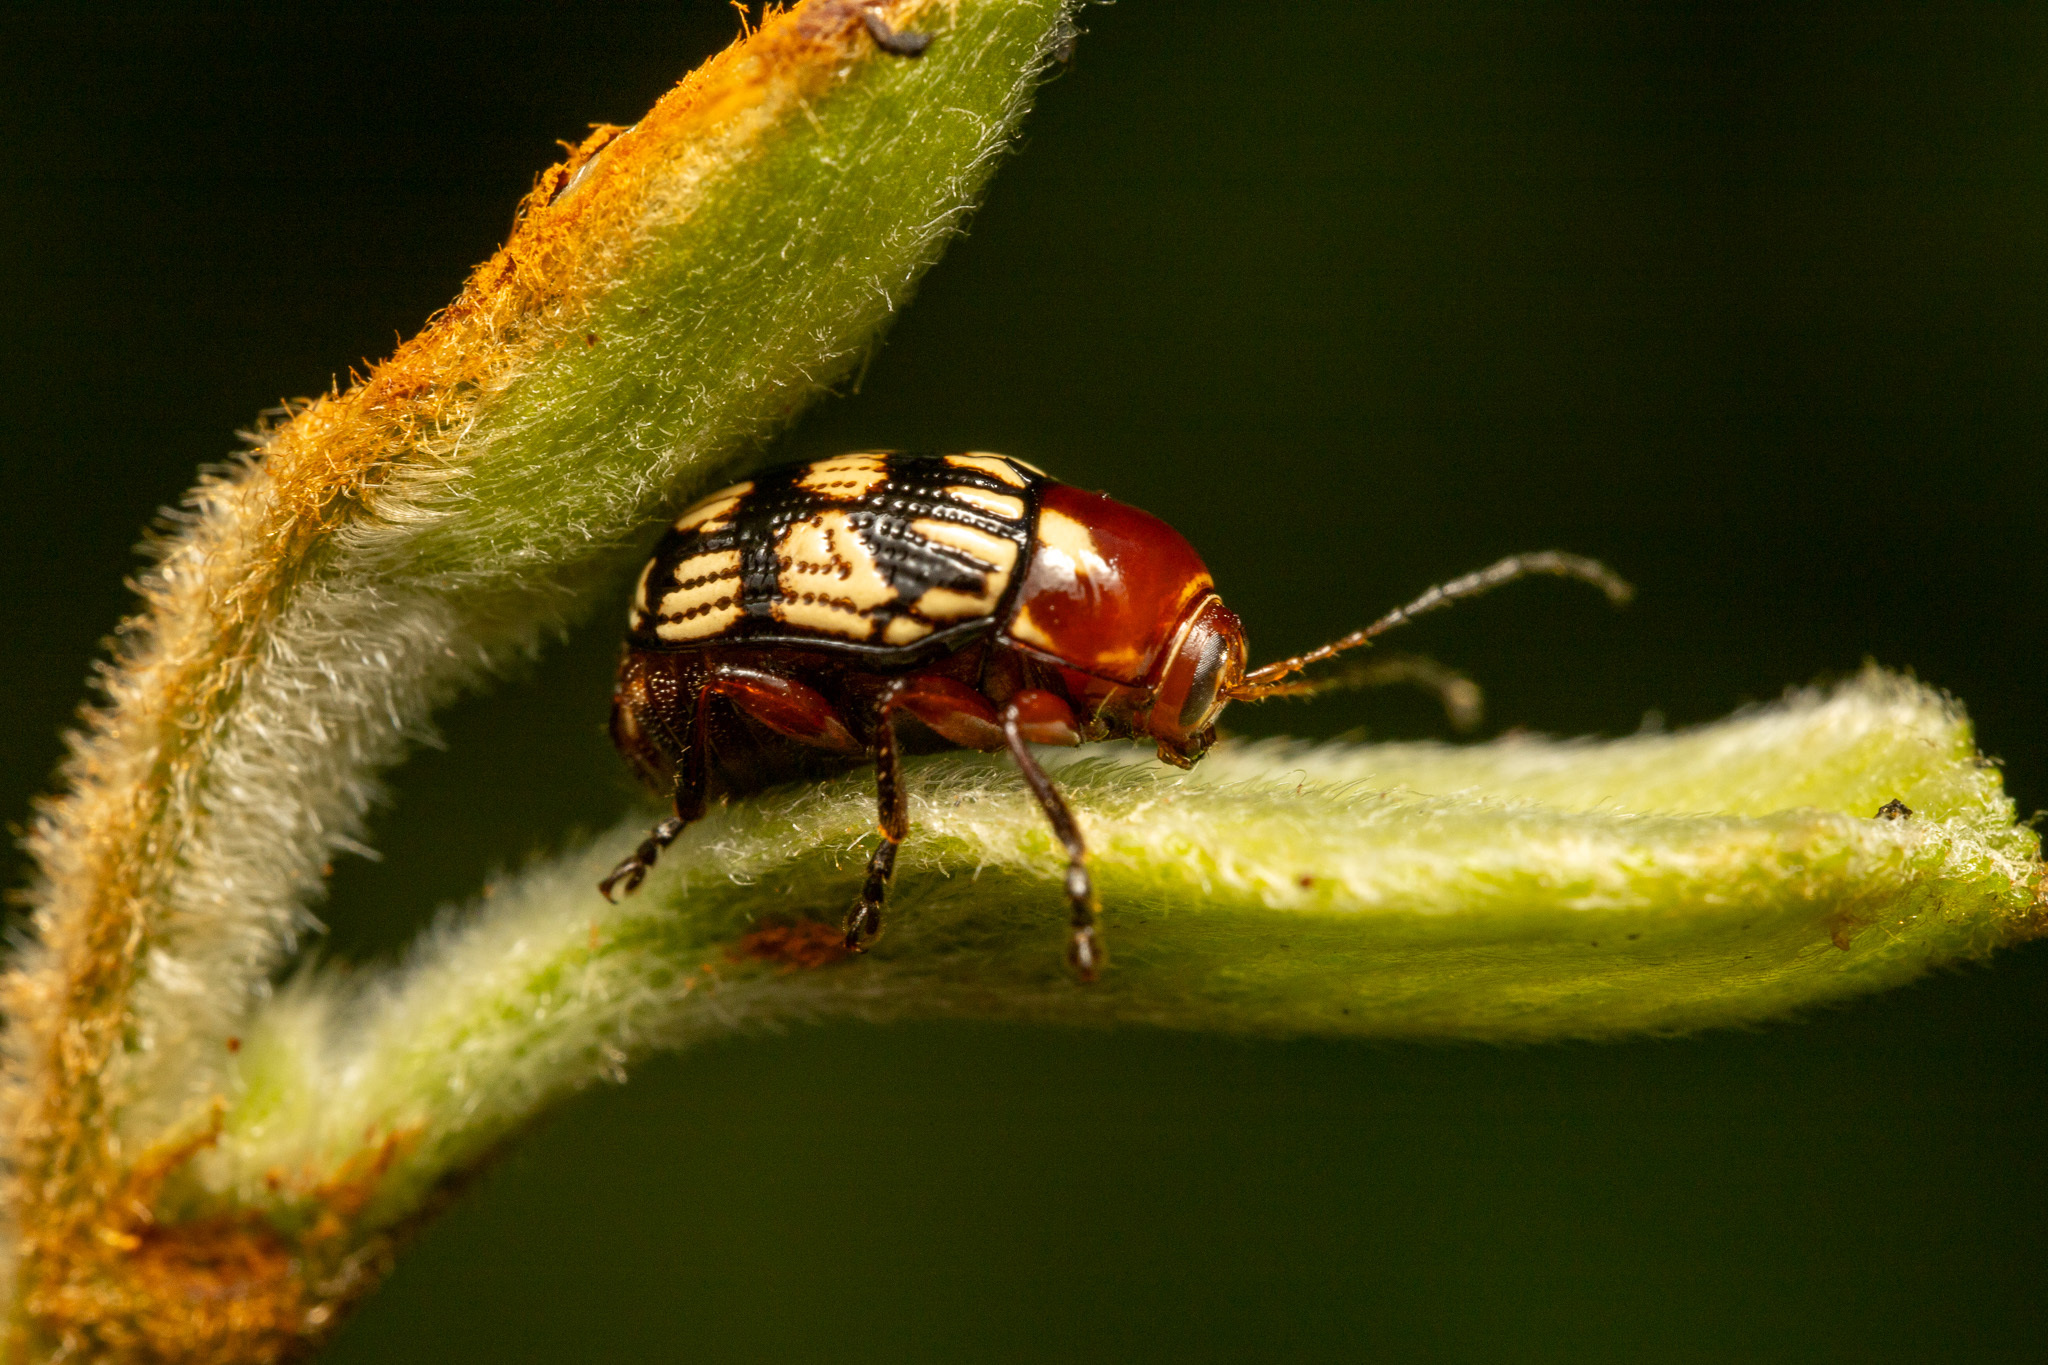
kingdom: Animalia
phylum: Arthropoda
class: Insecta
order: Coleoptera
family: Chrysomelidae
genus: Bassareus
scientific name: Bassareus brunnipes
